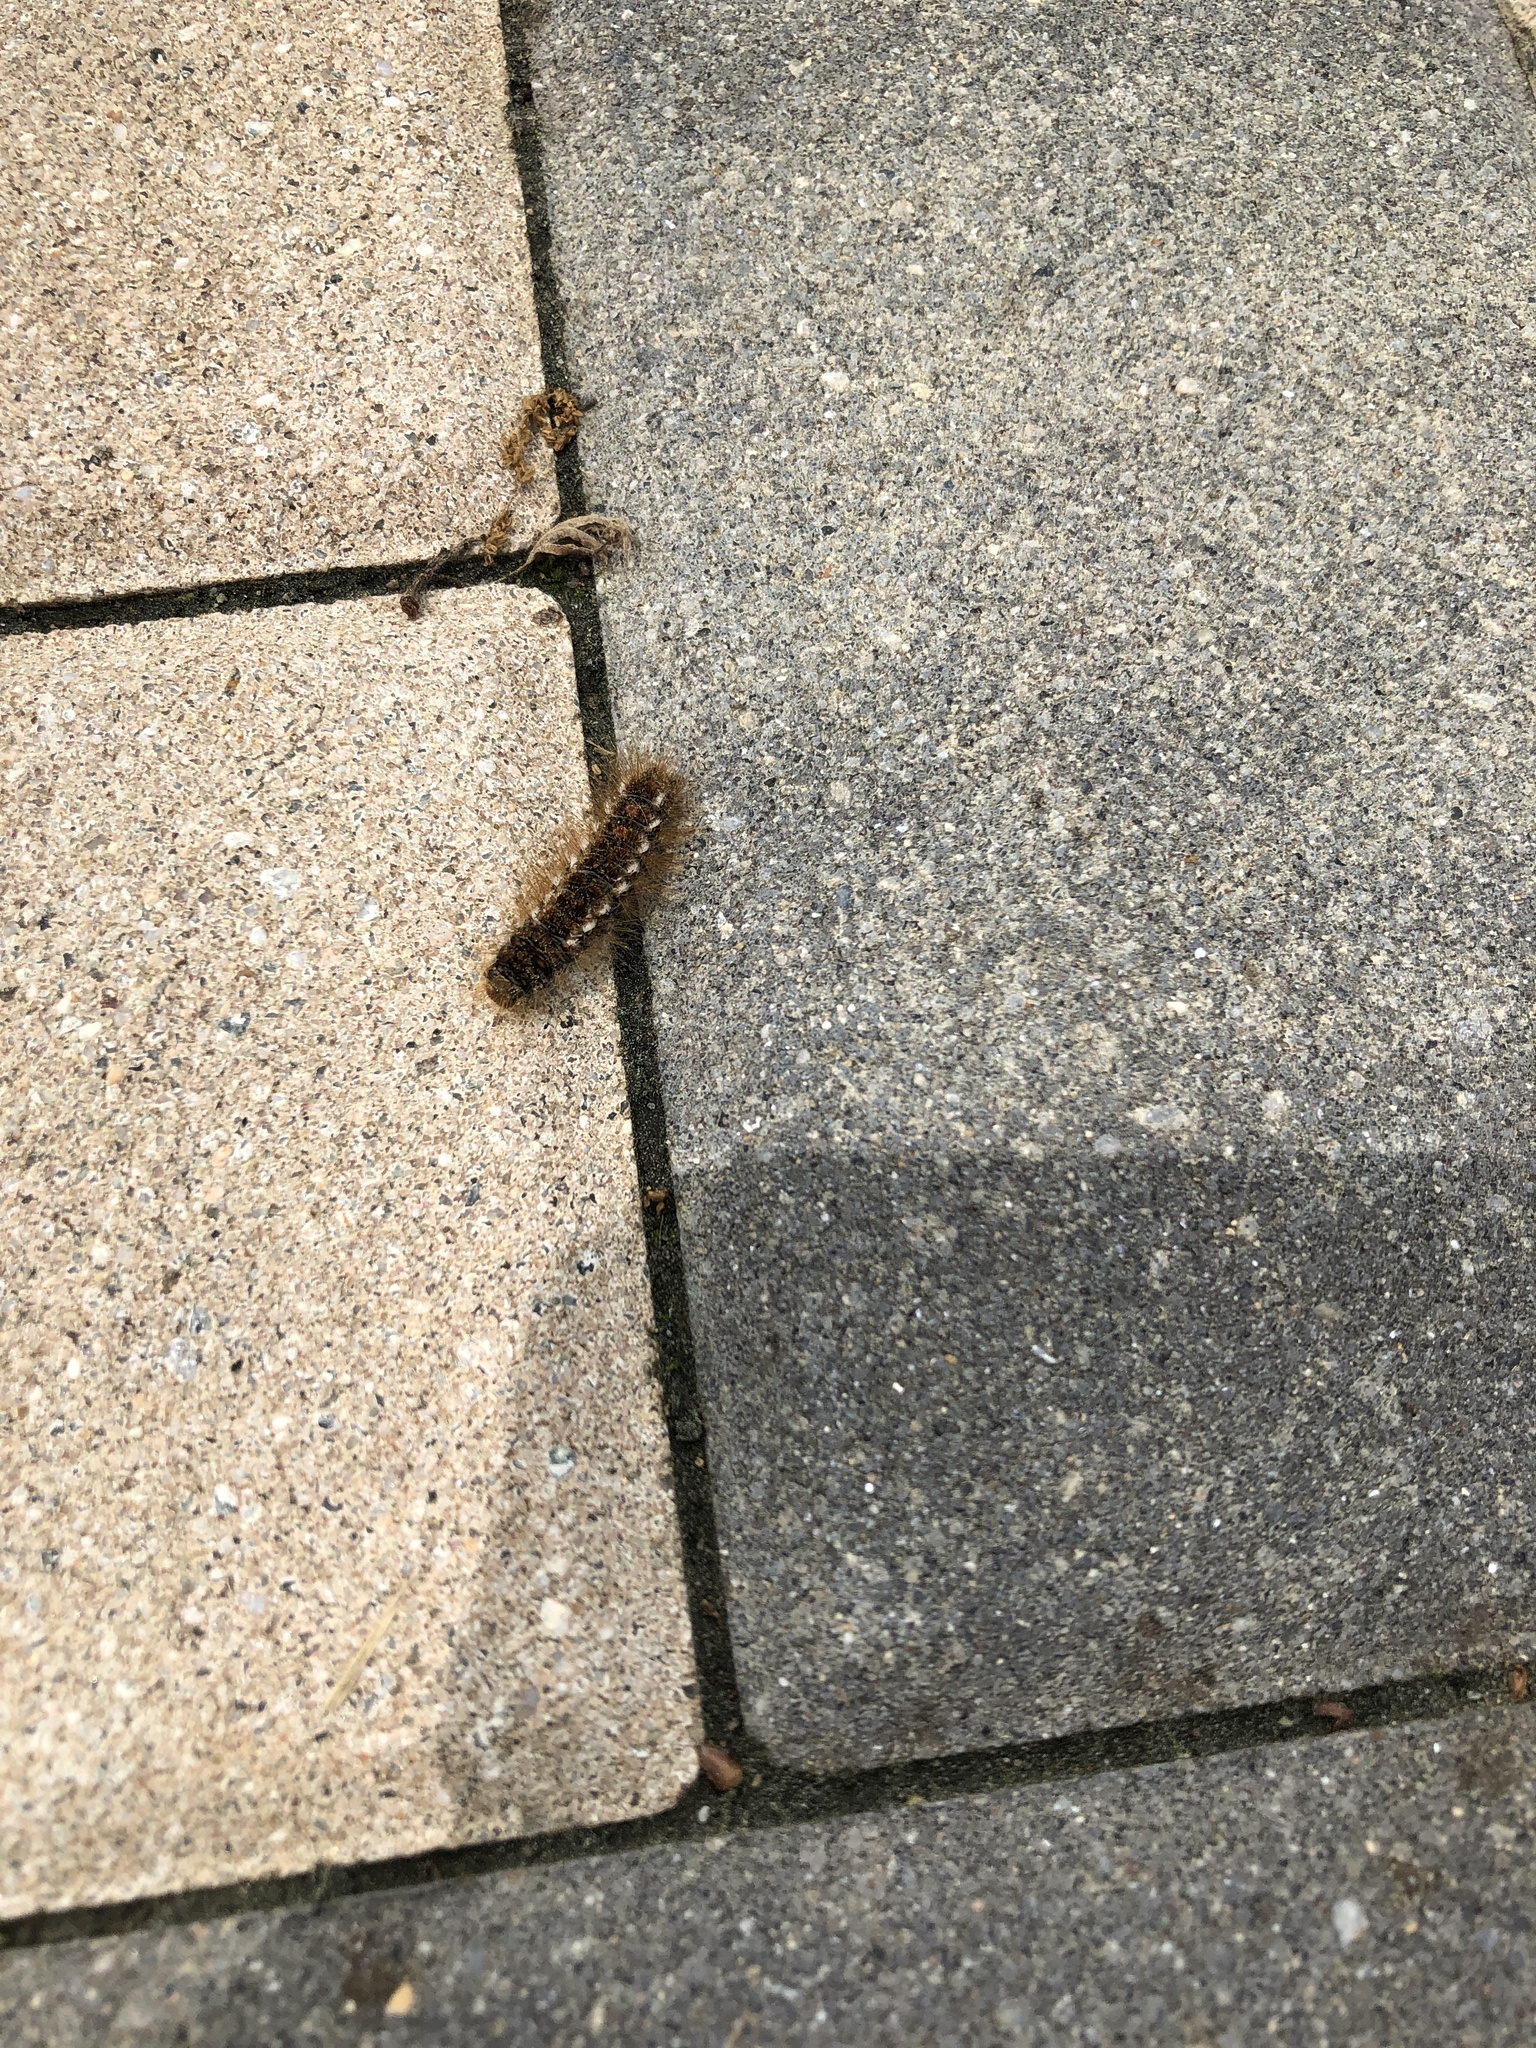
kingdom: Animalia
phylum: Arthropoda
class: Insecta
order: Lepidoptera
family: Erebidae
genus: Euproctis
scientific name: Euproctis chrysorrhoea
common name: Brown-tail
